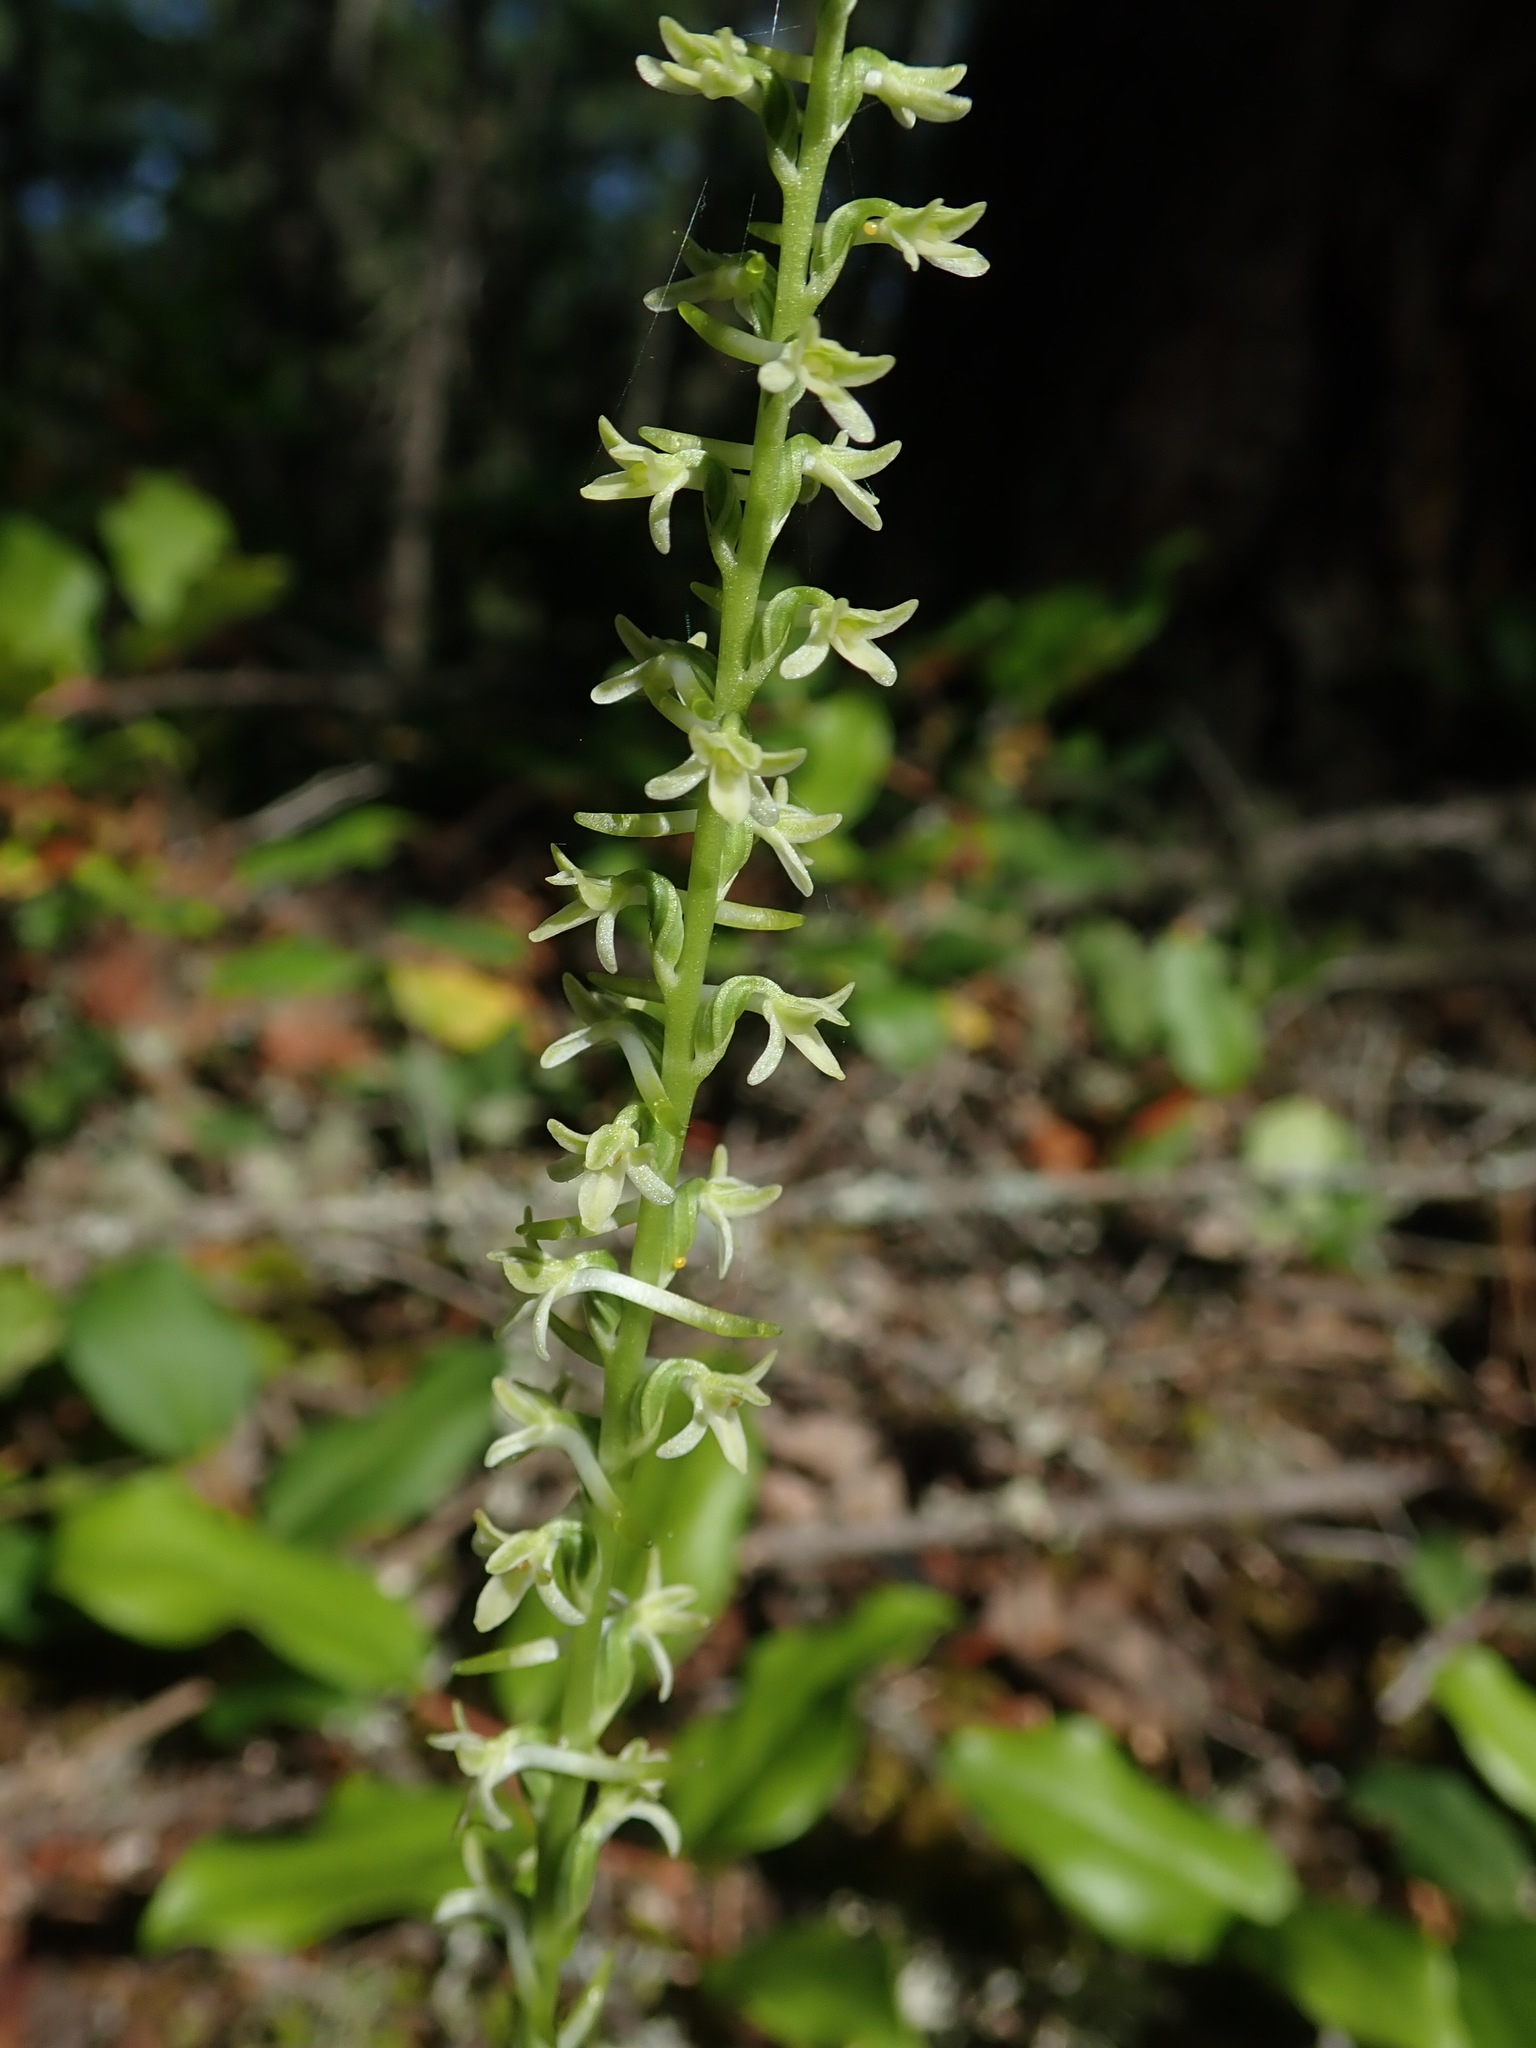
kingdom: Plantae
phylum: Tracheophyta
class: Liliopsida
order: Asparagales
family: Orchidaceae
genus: Platanthera
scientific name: Platanthera transversa
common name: Royal rein orchid
